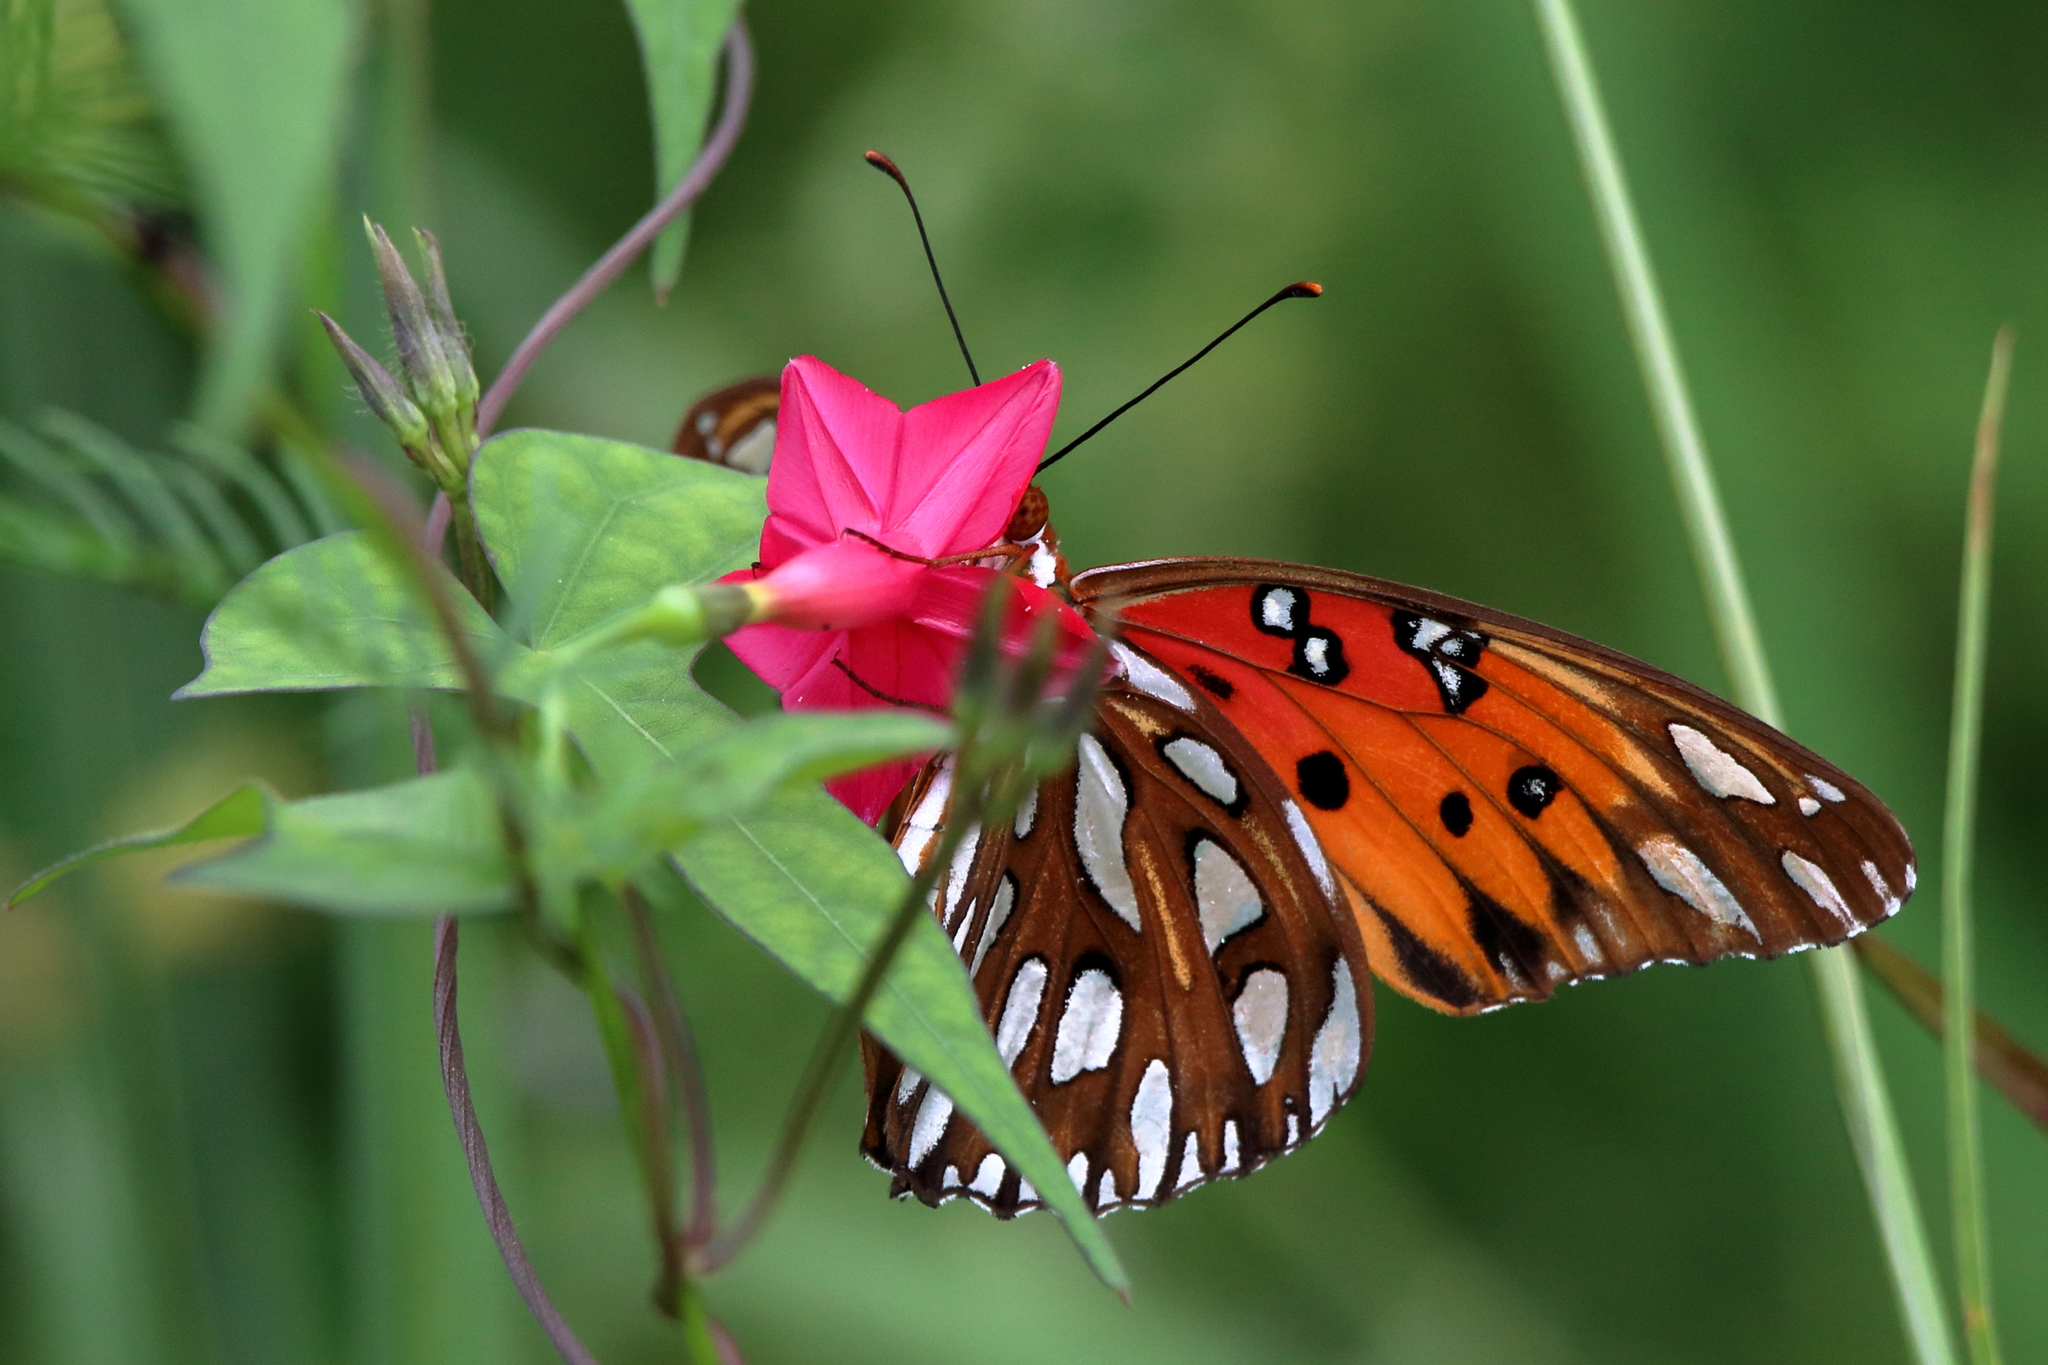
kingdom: Animalia
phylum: Arthropoda
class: Insecta
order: Lepidoptera
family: Nymphalidae
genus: Dione
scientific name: Dione vanillae
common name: Gulf fritillary
